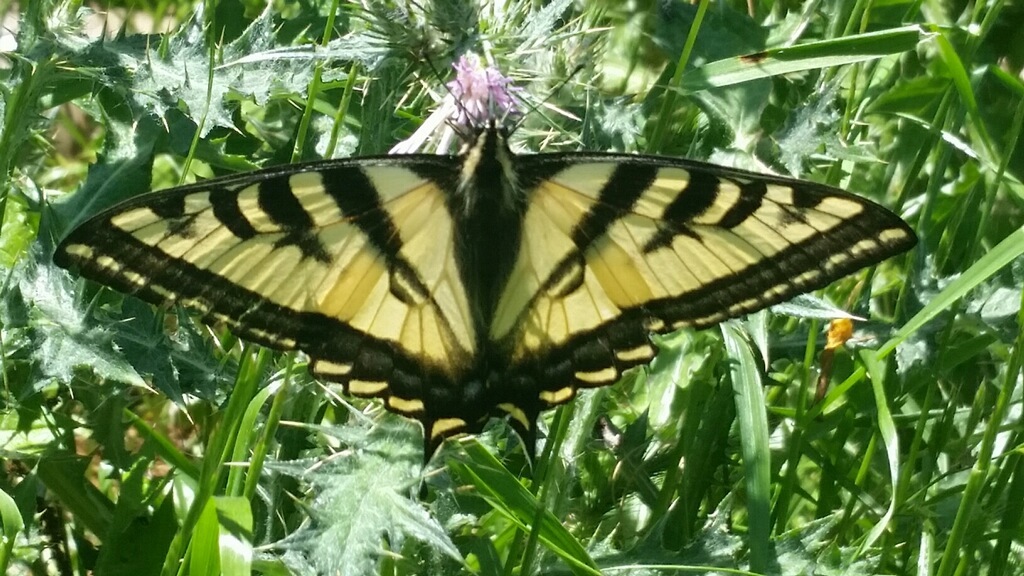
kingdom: Animalia
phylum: Arthropoda
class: Insecta
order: Lepidoptera
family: Papilionidae
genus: Papilio
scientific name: Papilio rutulus
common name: Western tiger swallowtail
